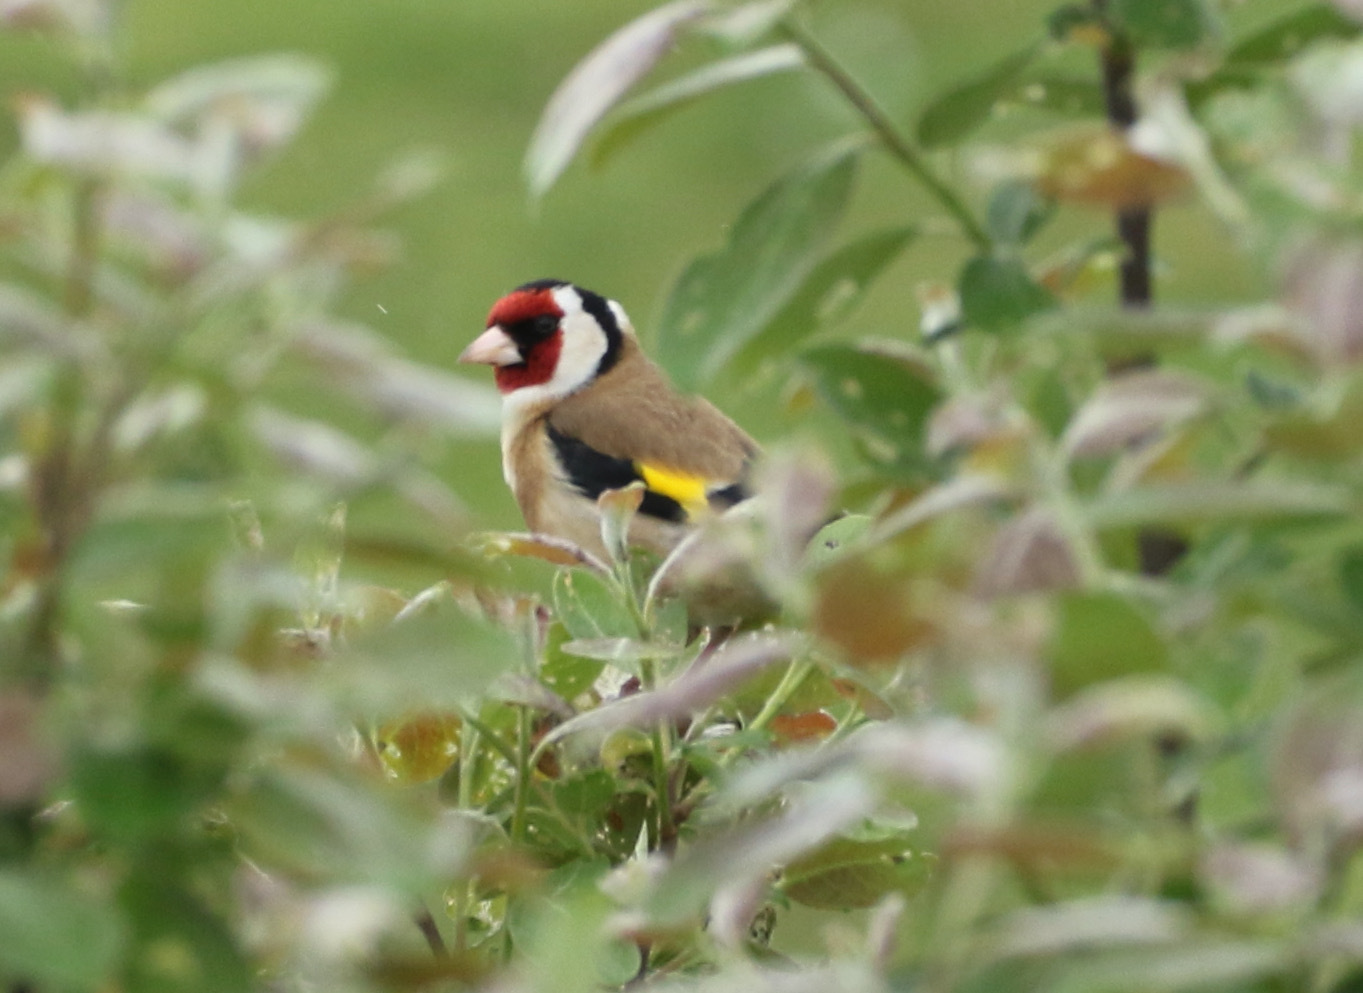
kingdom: Animalia
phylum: Chordata
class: Aves
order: Passeriformes
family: Fringillidae
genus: Carduelis
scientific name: Carduelis carduelis
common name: European goldfinch
